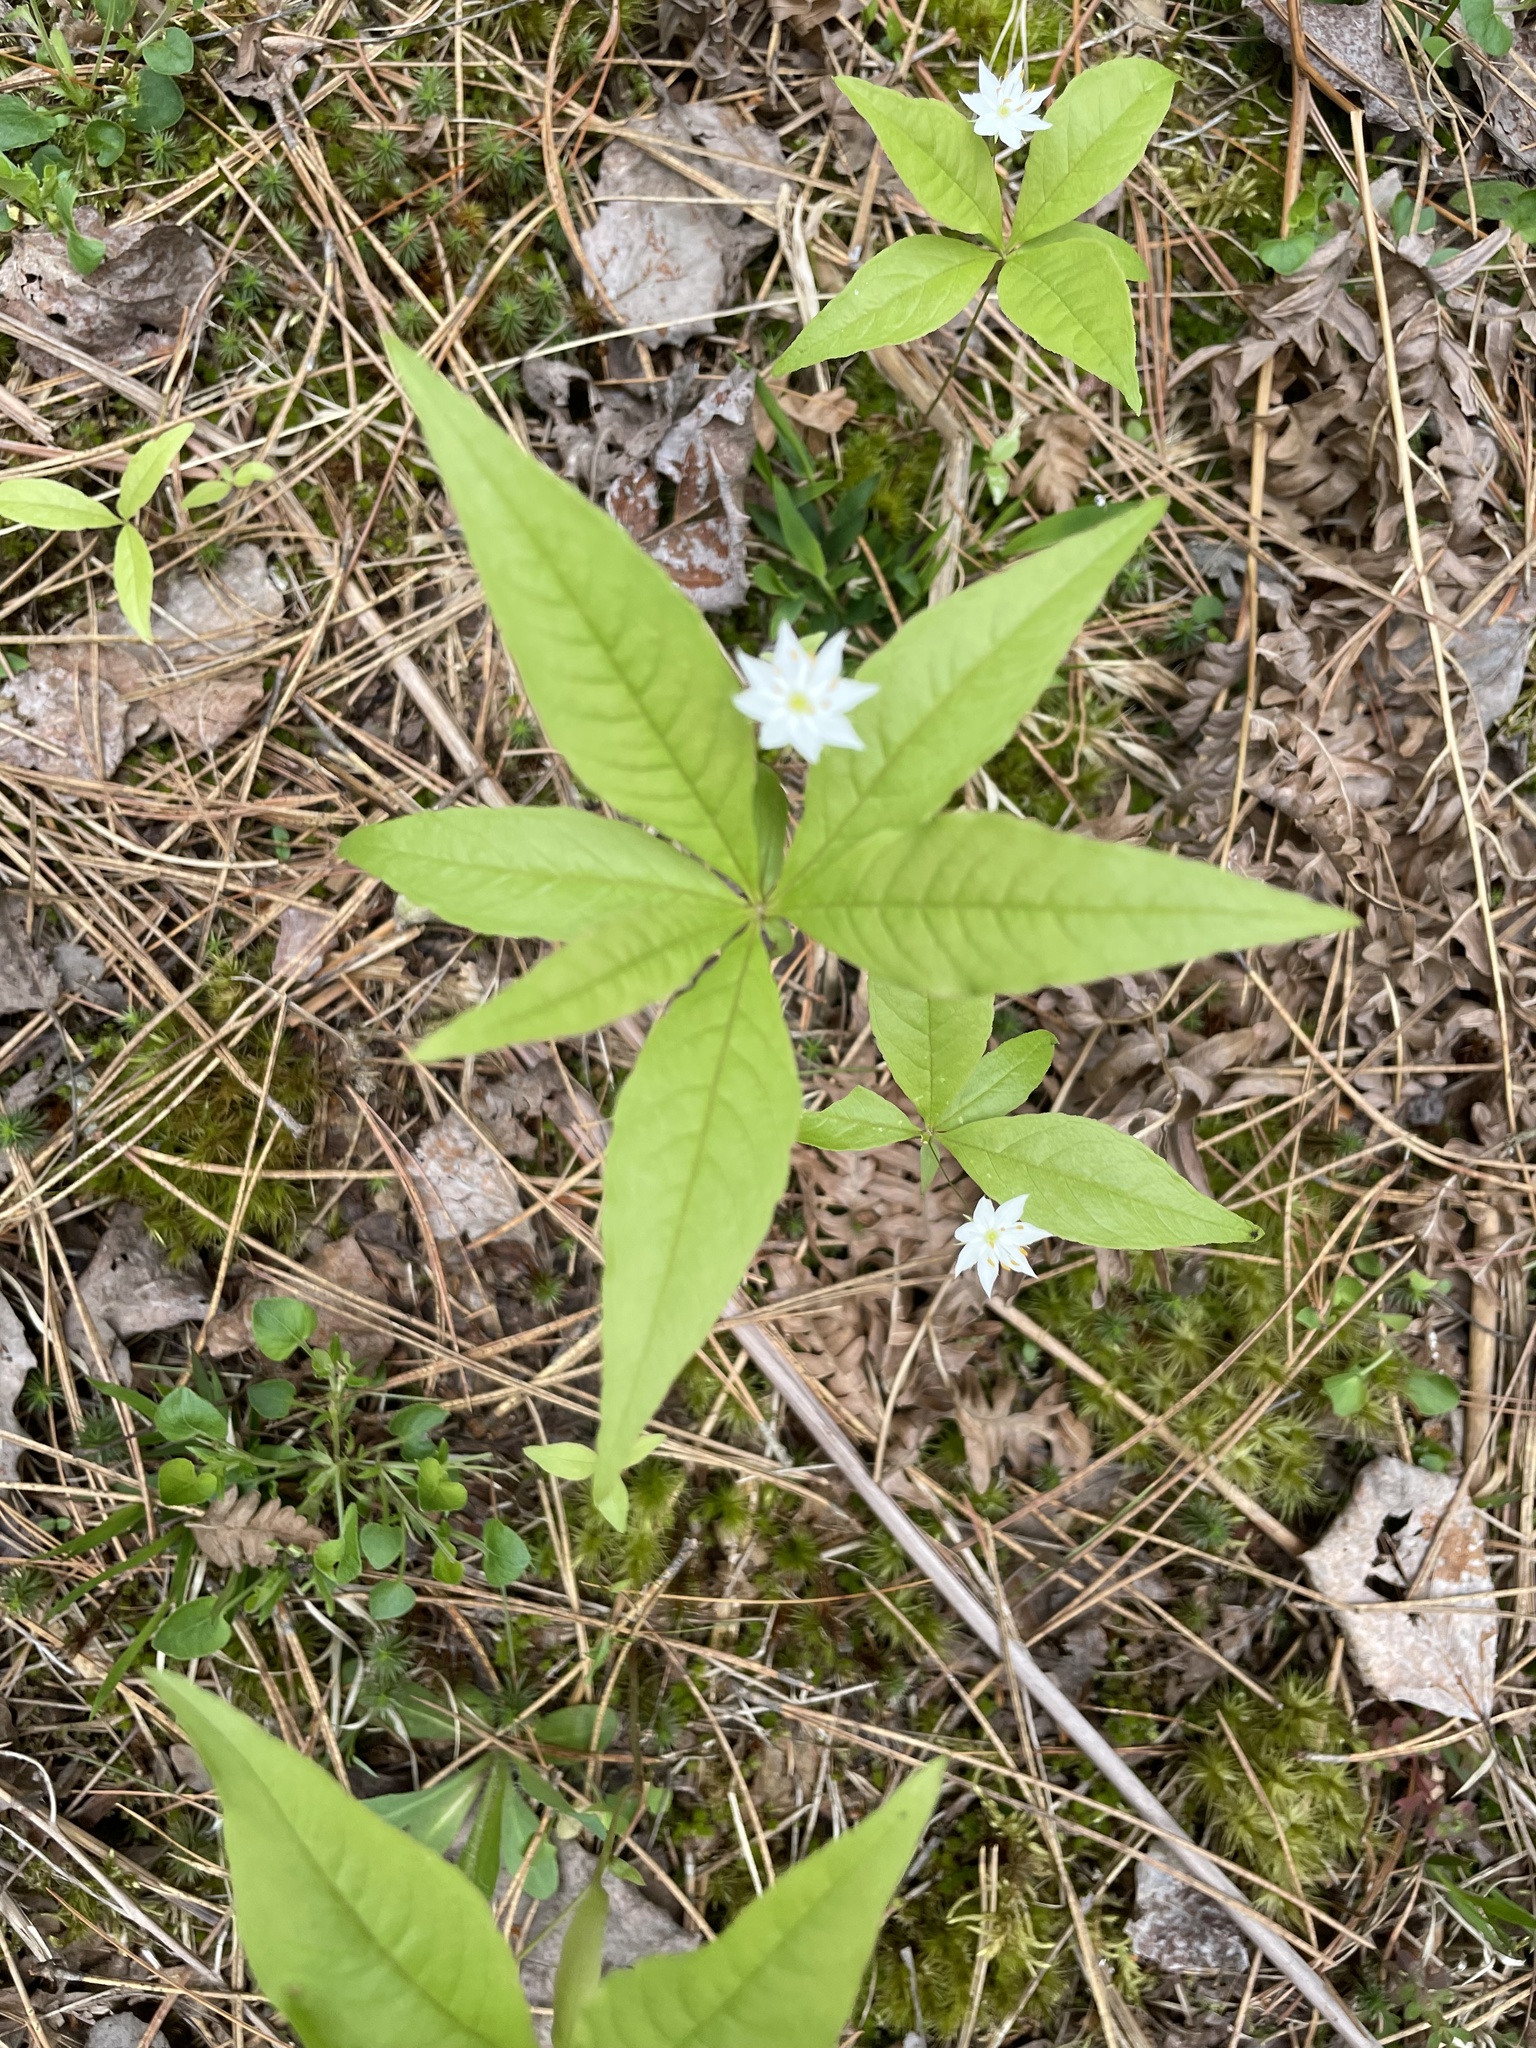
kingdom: Plantae
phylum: Tracheophyta
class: Magnoliopsida
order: Ericales
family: Primulaceae
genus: Lysimachia
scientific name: Lysimachia borealis
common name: American starflower
